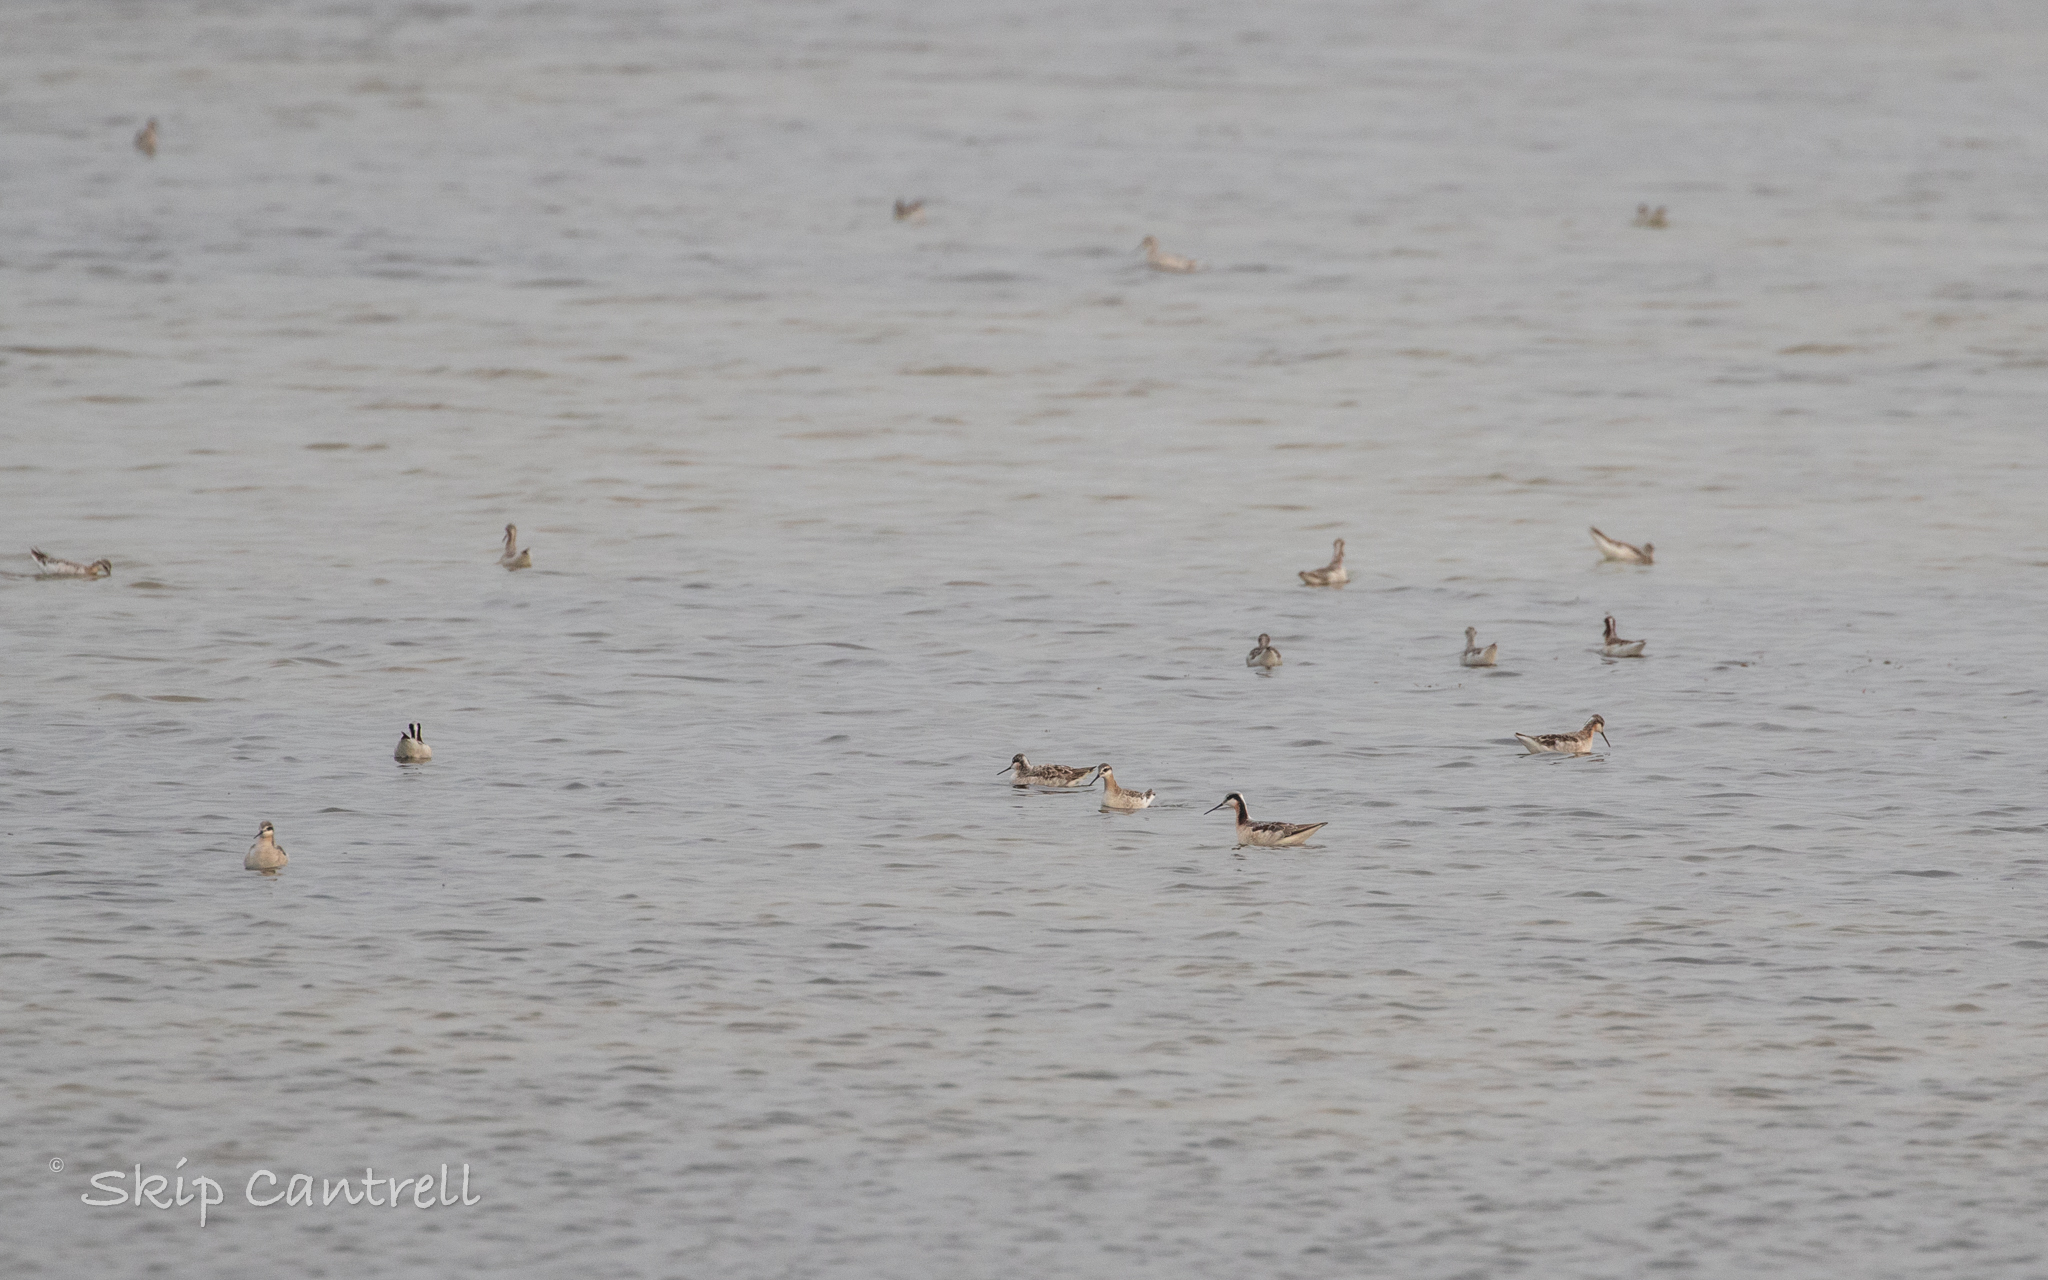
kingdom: Animalia
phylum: Chordata
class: Aves
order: Charadriiformes
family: Scolopacidae
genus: Phalaropus
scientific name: Phalaropus tricolor
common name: Wilson's phalarope
